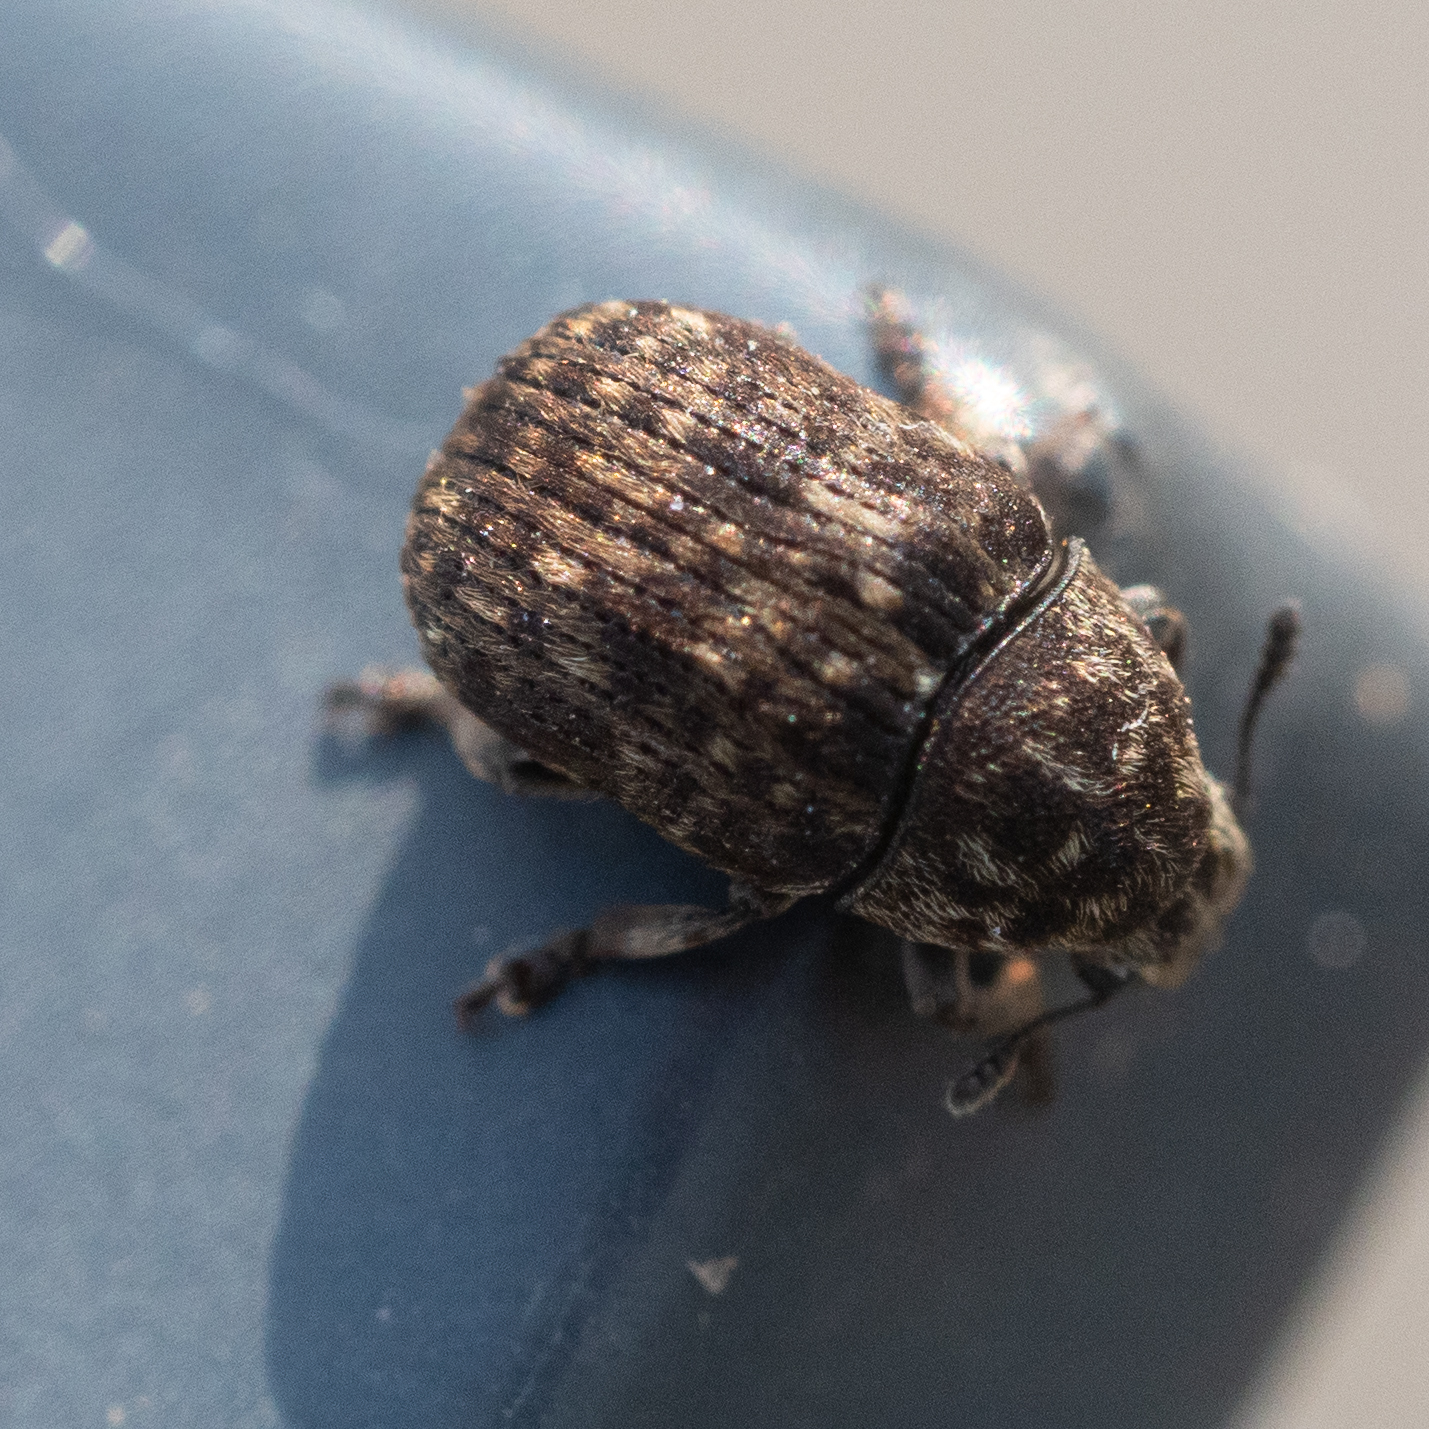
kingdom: Animalia
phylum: Arthropoda
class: Insecta
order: Coleoptera
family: Anthribidae
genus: Anthribus
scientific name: Anthribus nebulosus
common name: Fungus weevil
